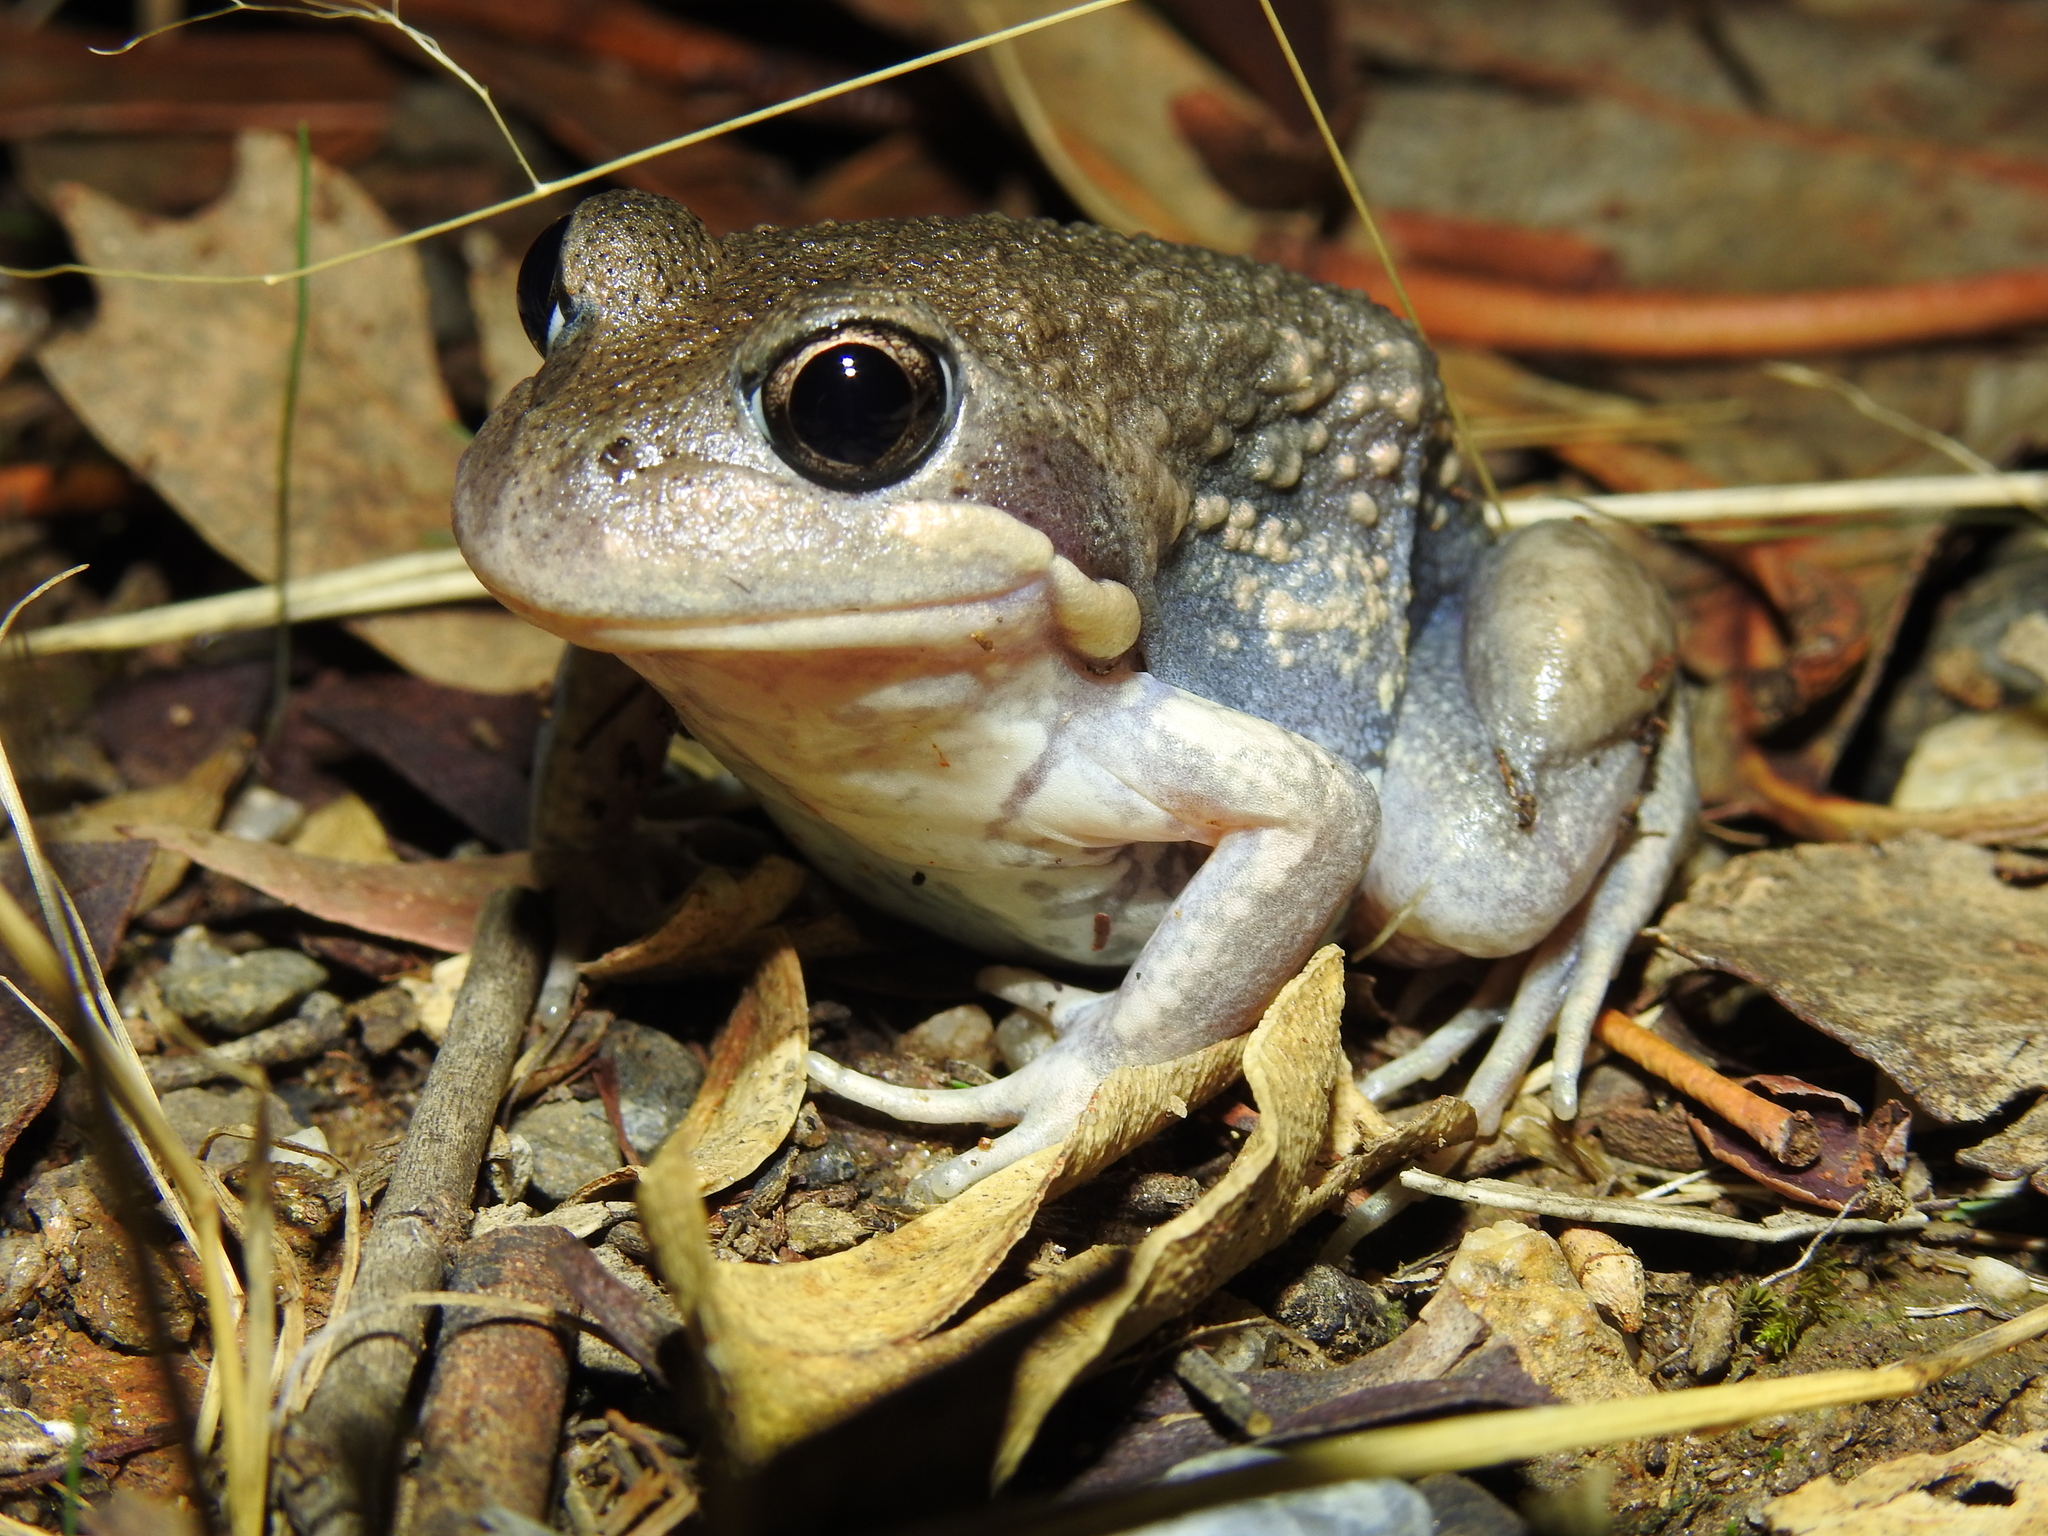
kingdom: Animalia
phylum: Chordata
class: Amphibia
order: Anura
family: Limnodynastidae
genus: Limnodynastes
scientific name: Limnodynastes dumerilii
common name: Banjo frog
